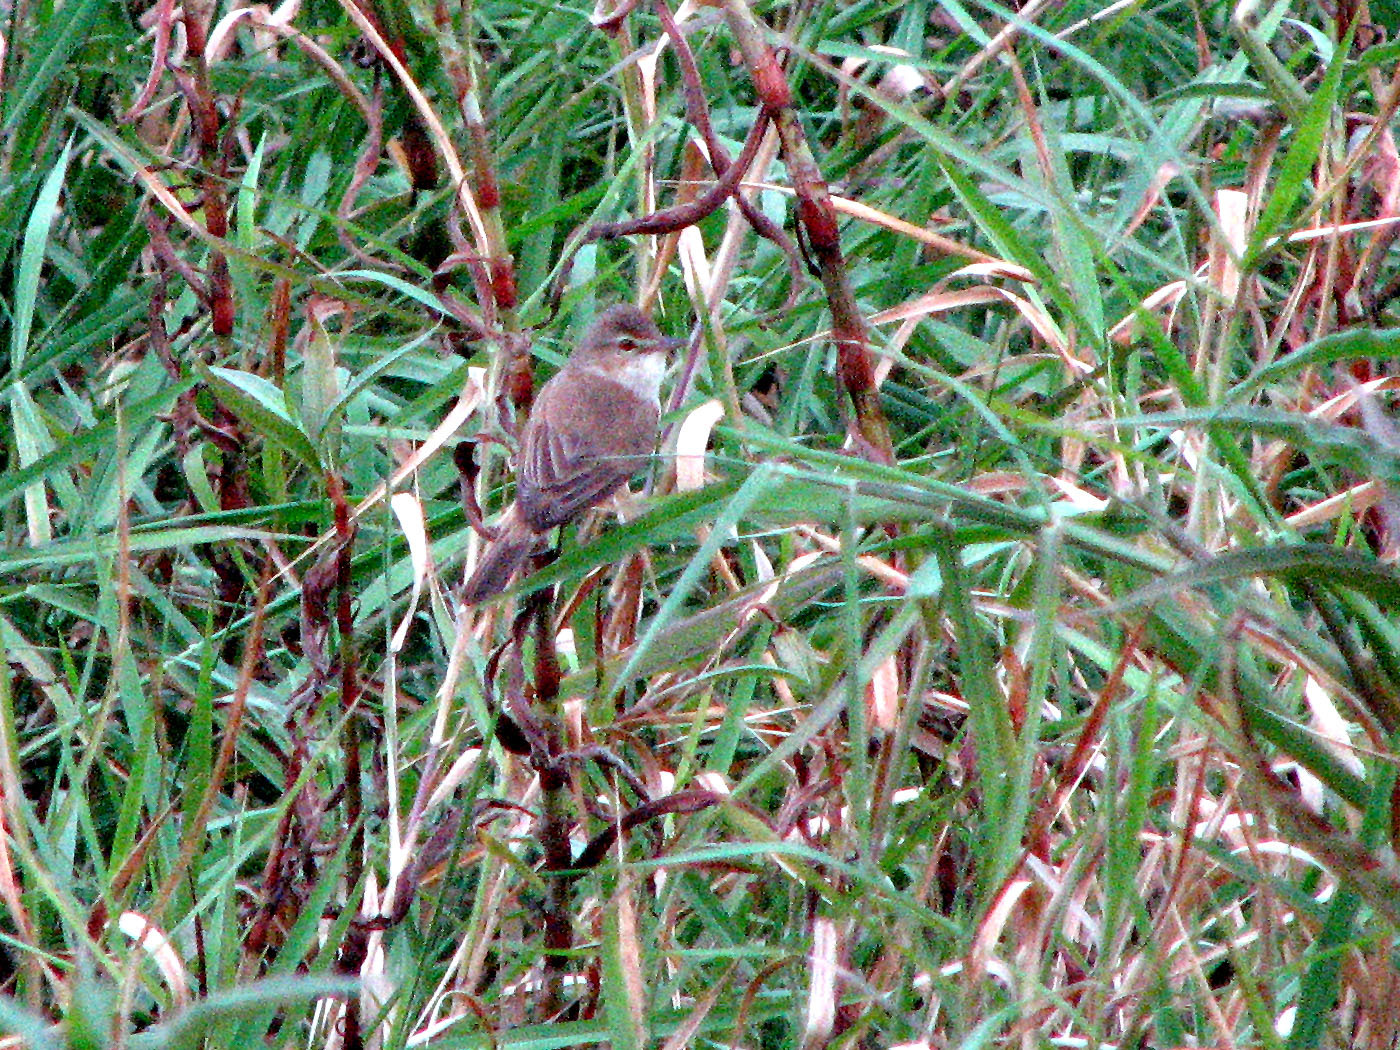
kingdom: Animalia
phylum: Chordata
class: Aves
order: Passeriformes
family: Acrocephalidae
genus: Acrocephalus
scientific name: Acrocephalus australis
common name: Australian reed warbler
